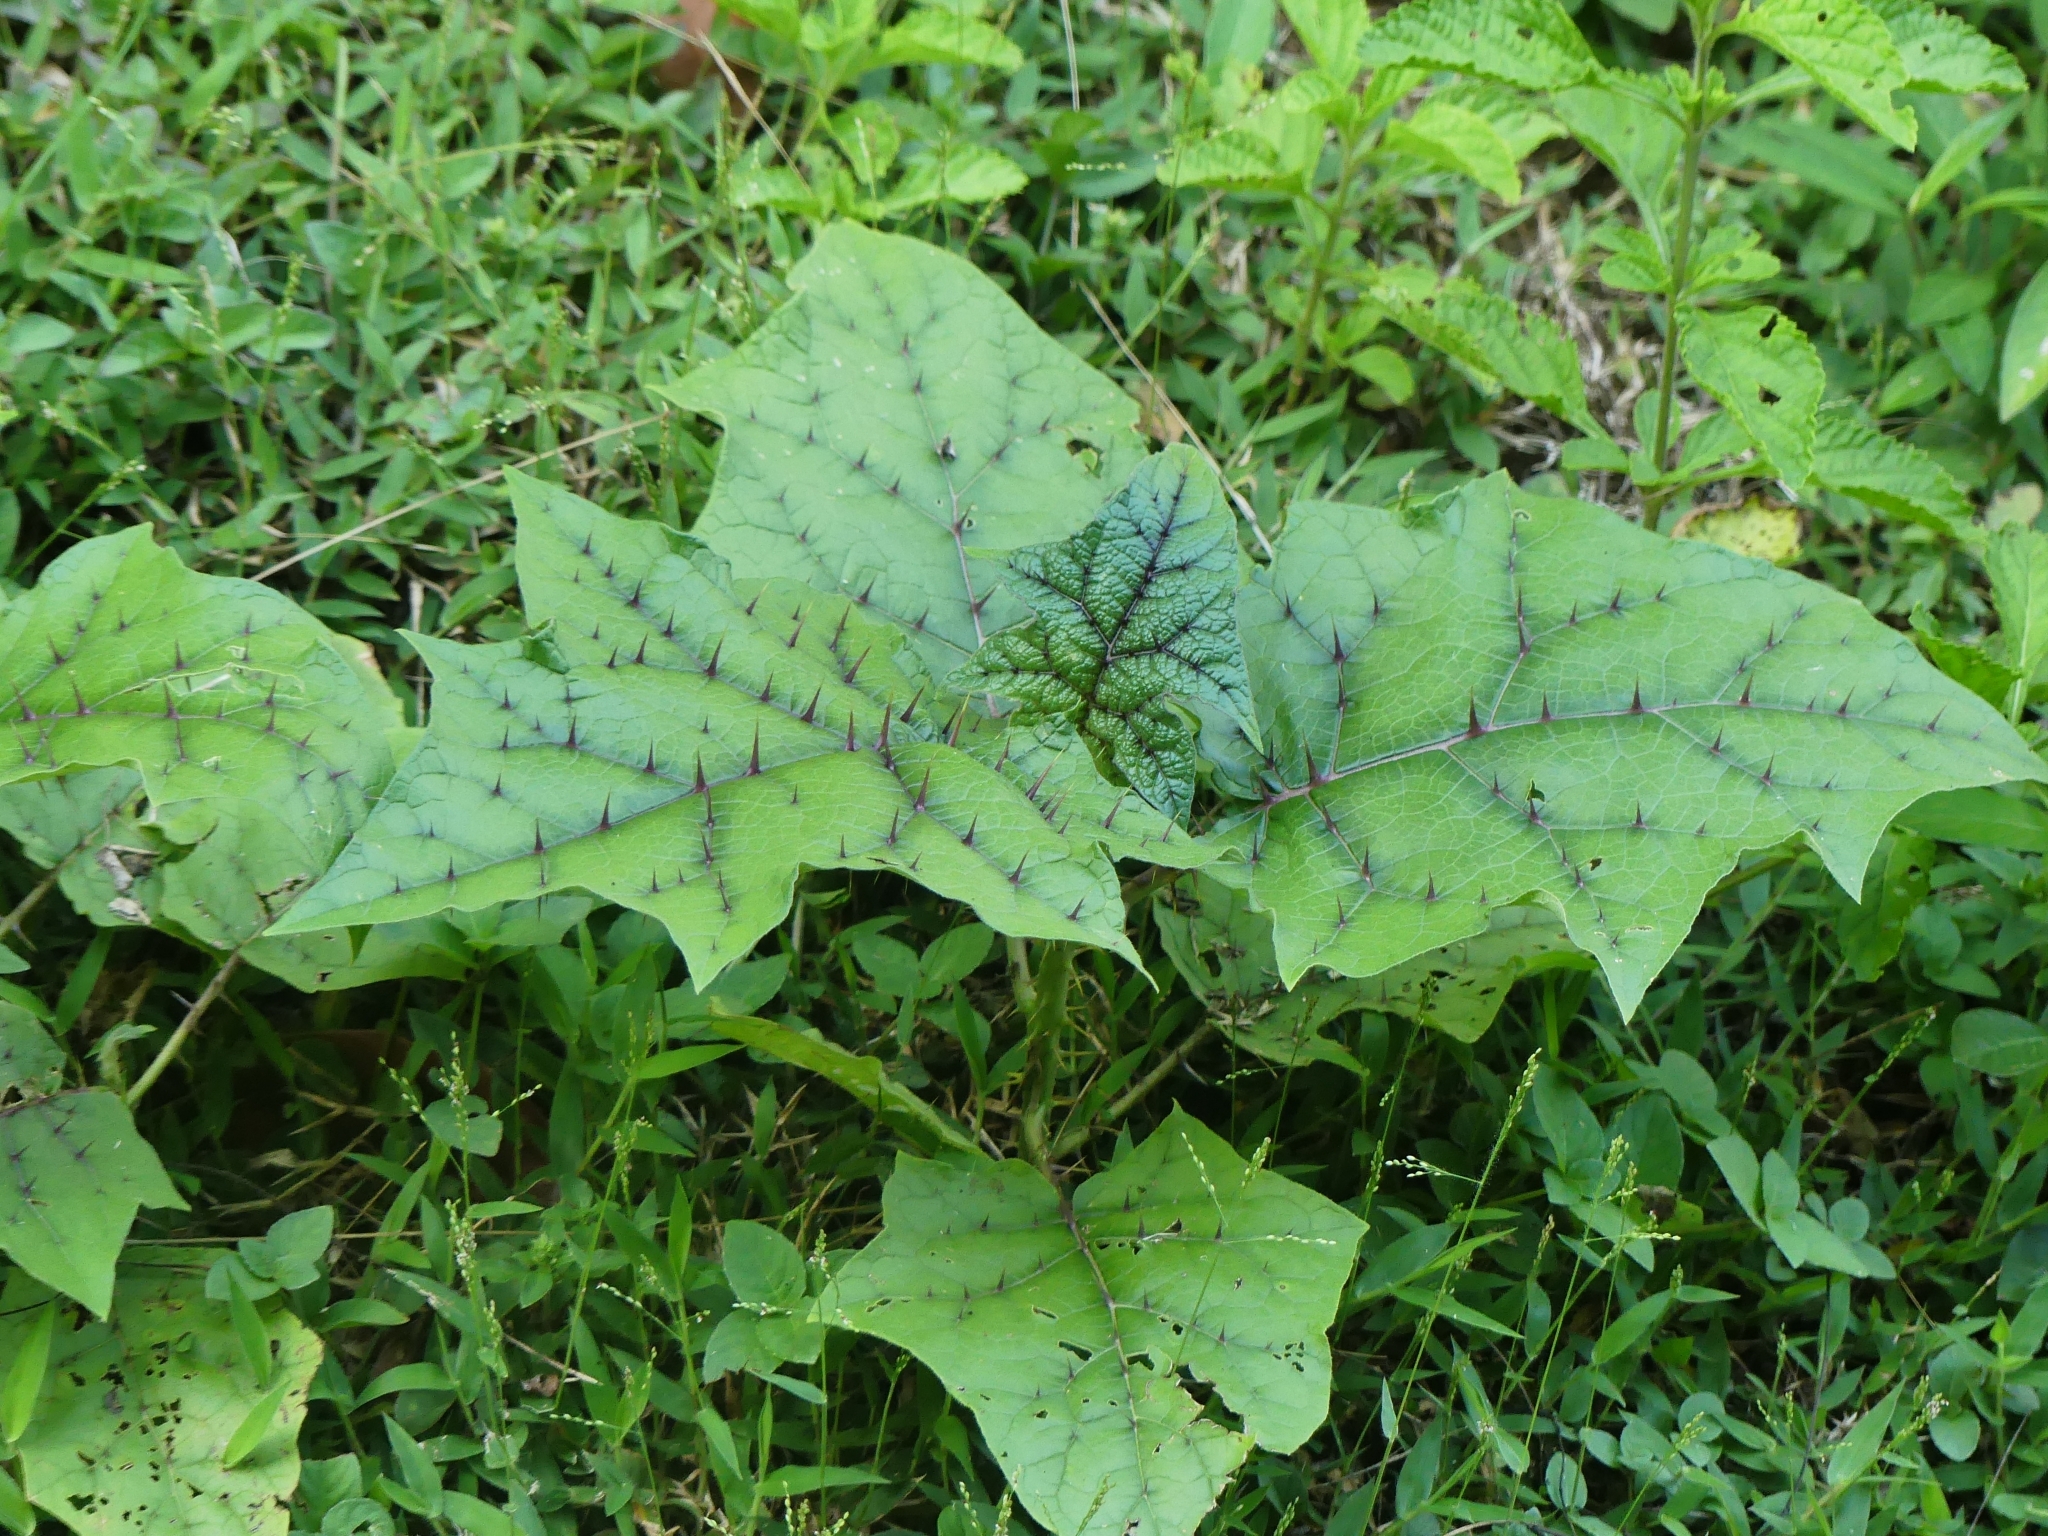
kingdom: Plantae
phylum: Tracheophyta
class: Magnoliopsida
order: Solanales
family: Solanaceae
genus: Solanum
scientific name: Solanum
